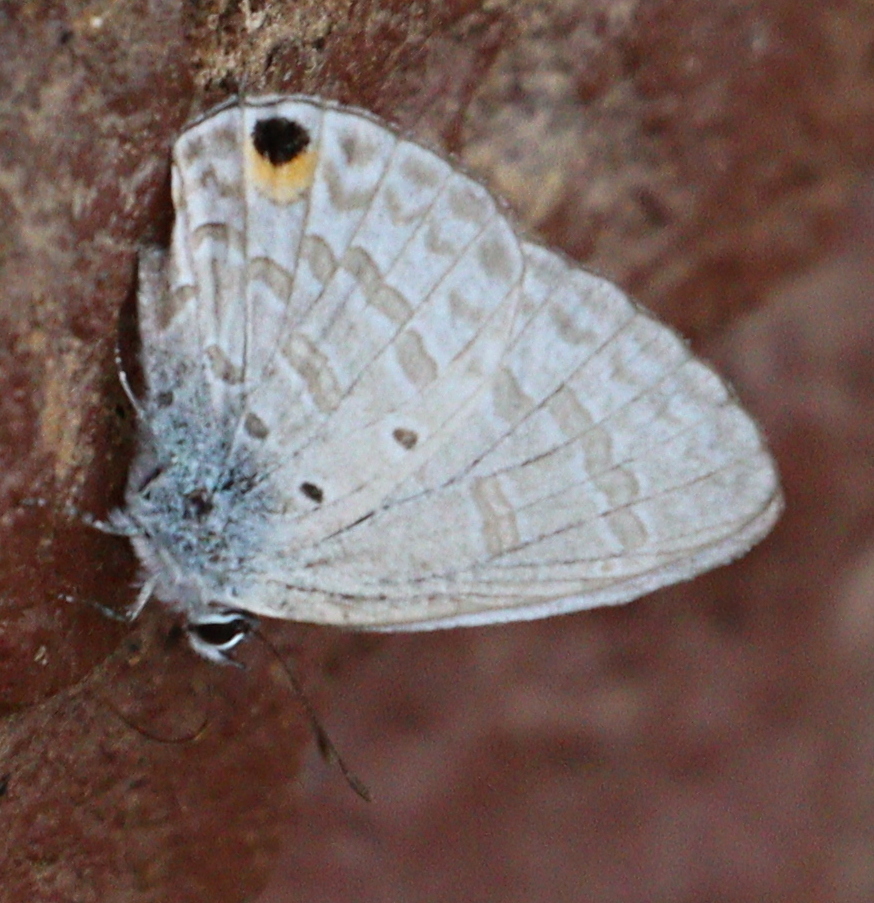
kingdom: Animalia
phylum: Arthropoda
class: Insecta
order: Lepidoptera
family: Lycaenidae
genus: Catochrysops
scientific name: Catochrysops panormus
